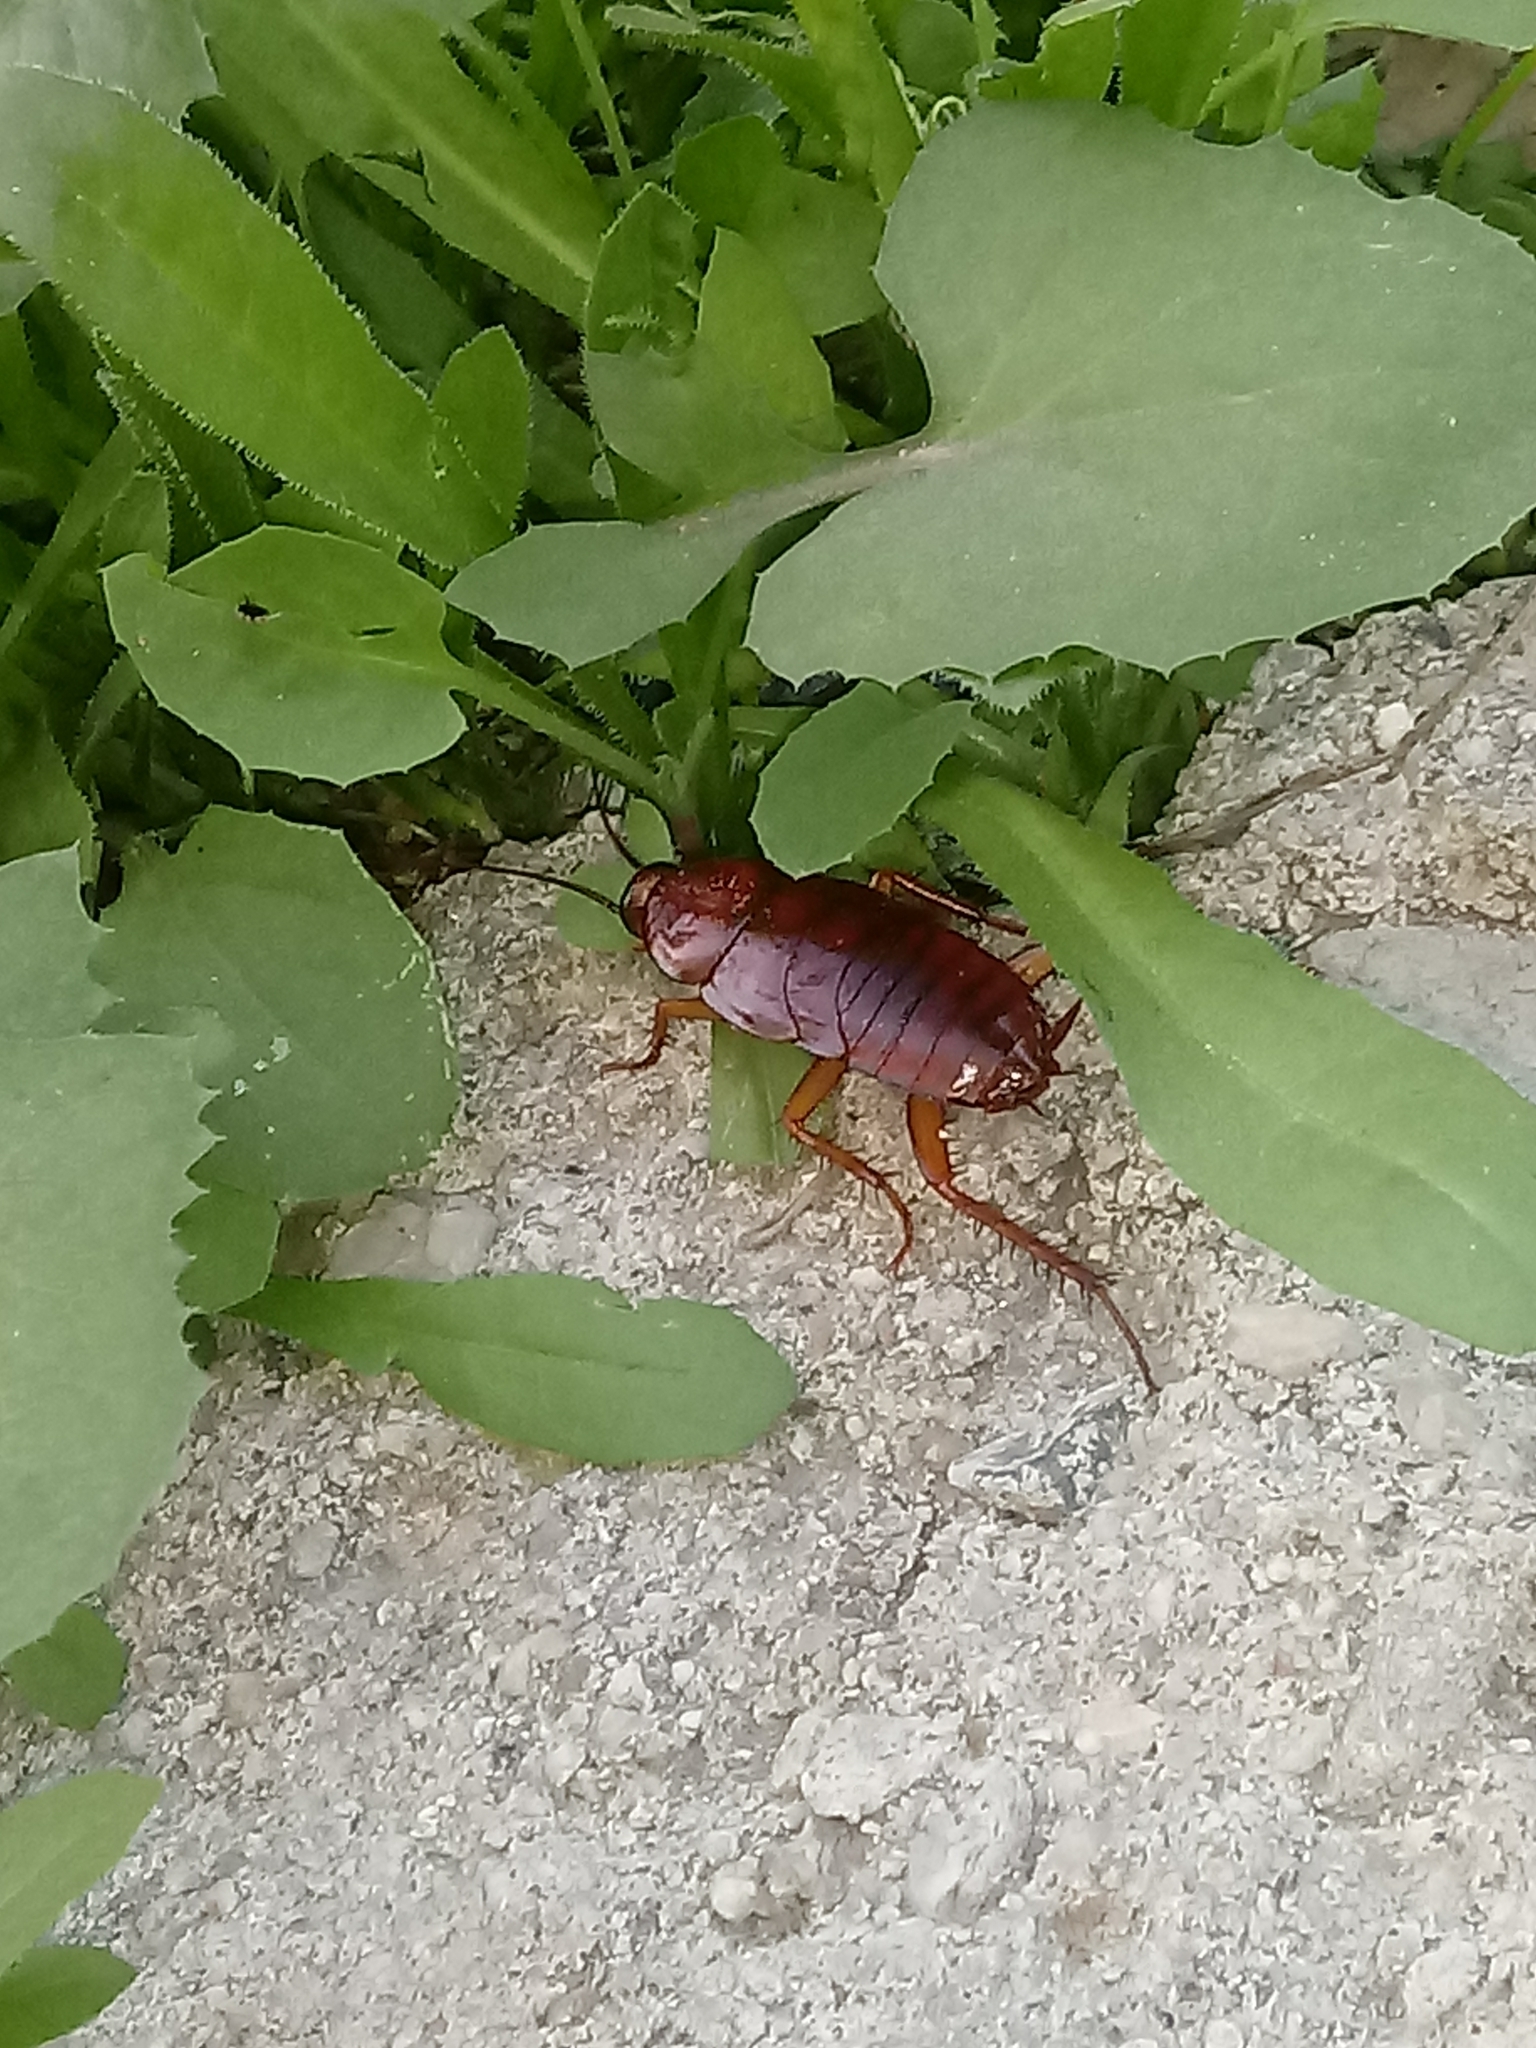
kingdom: Animalia
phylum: Arthropoda
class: Insecta
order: Blattodea
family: Blattidae
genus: Periplaneta
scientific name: Periplaneta brunnea
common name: Brown cockroach
